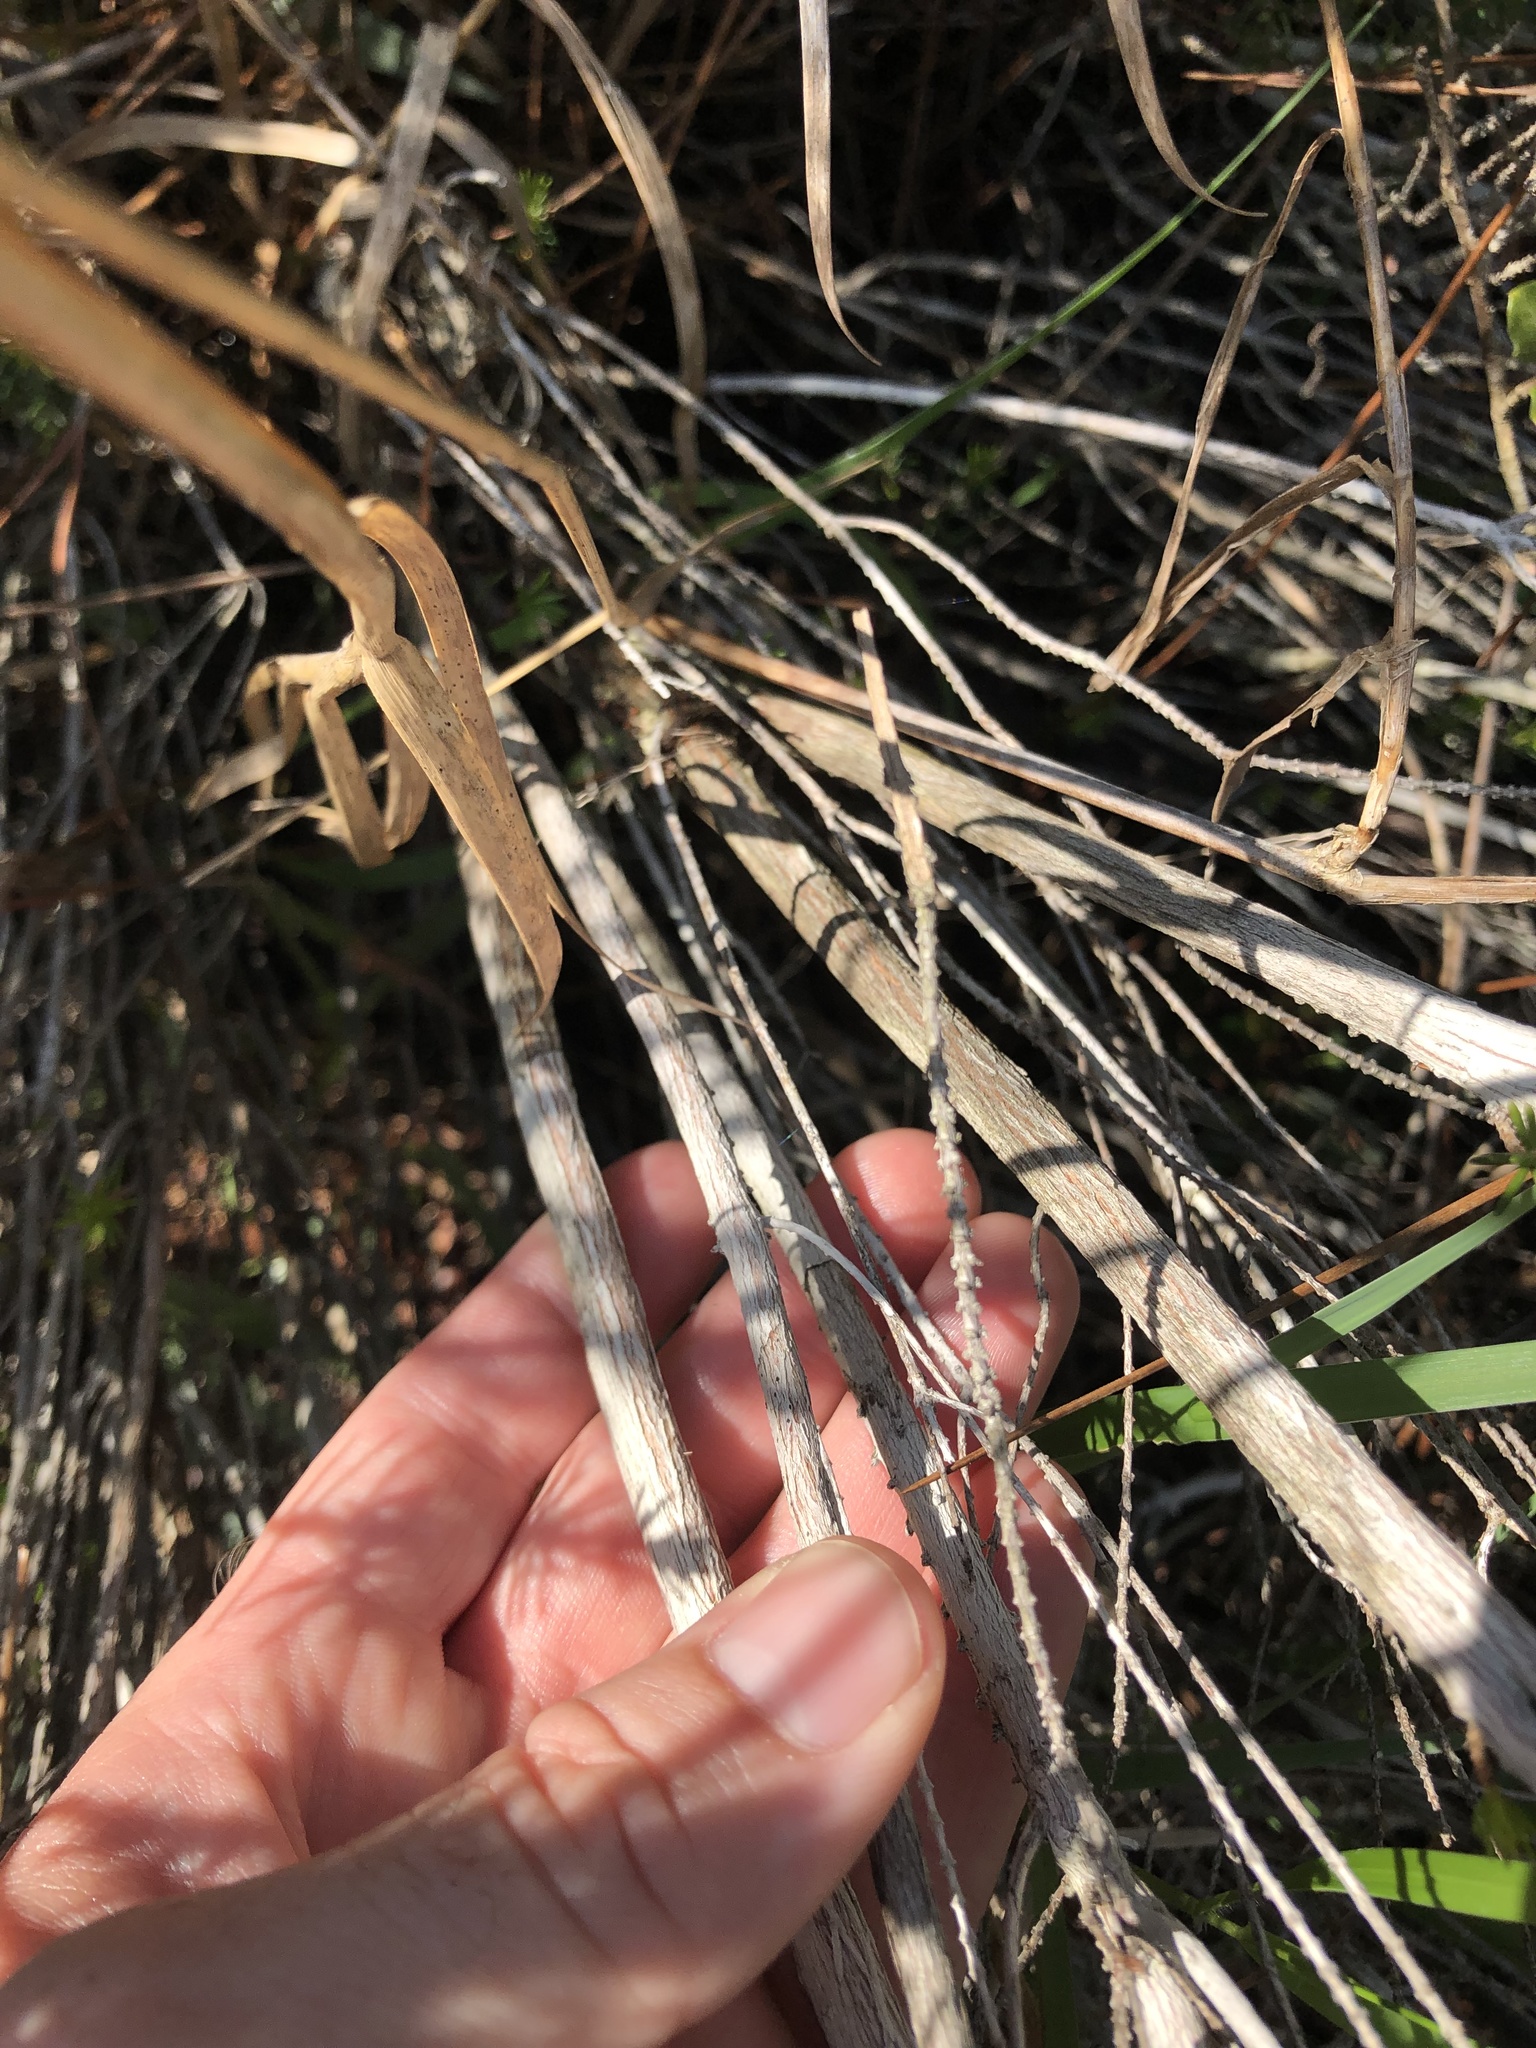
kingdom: Plantae
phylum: Tracheophyta
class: Magnoliopsida
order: Ericales
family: Ericaceae
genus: Ceratiola
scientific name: Ceratiola ericoides
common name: Sandhill-rosemary
